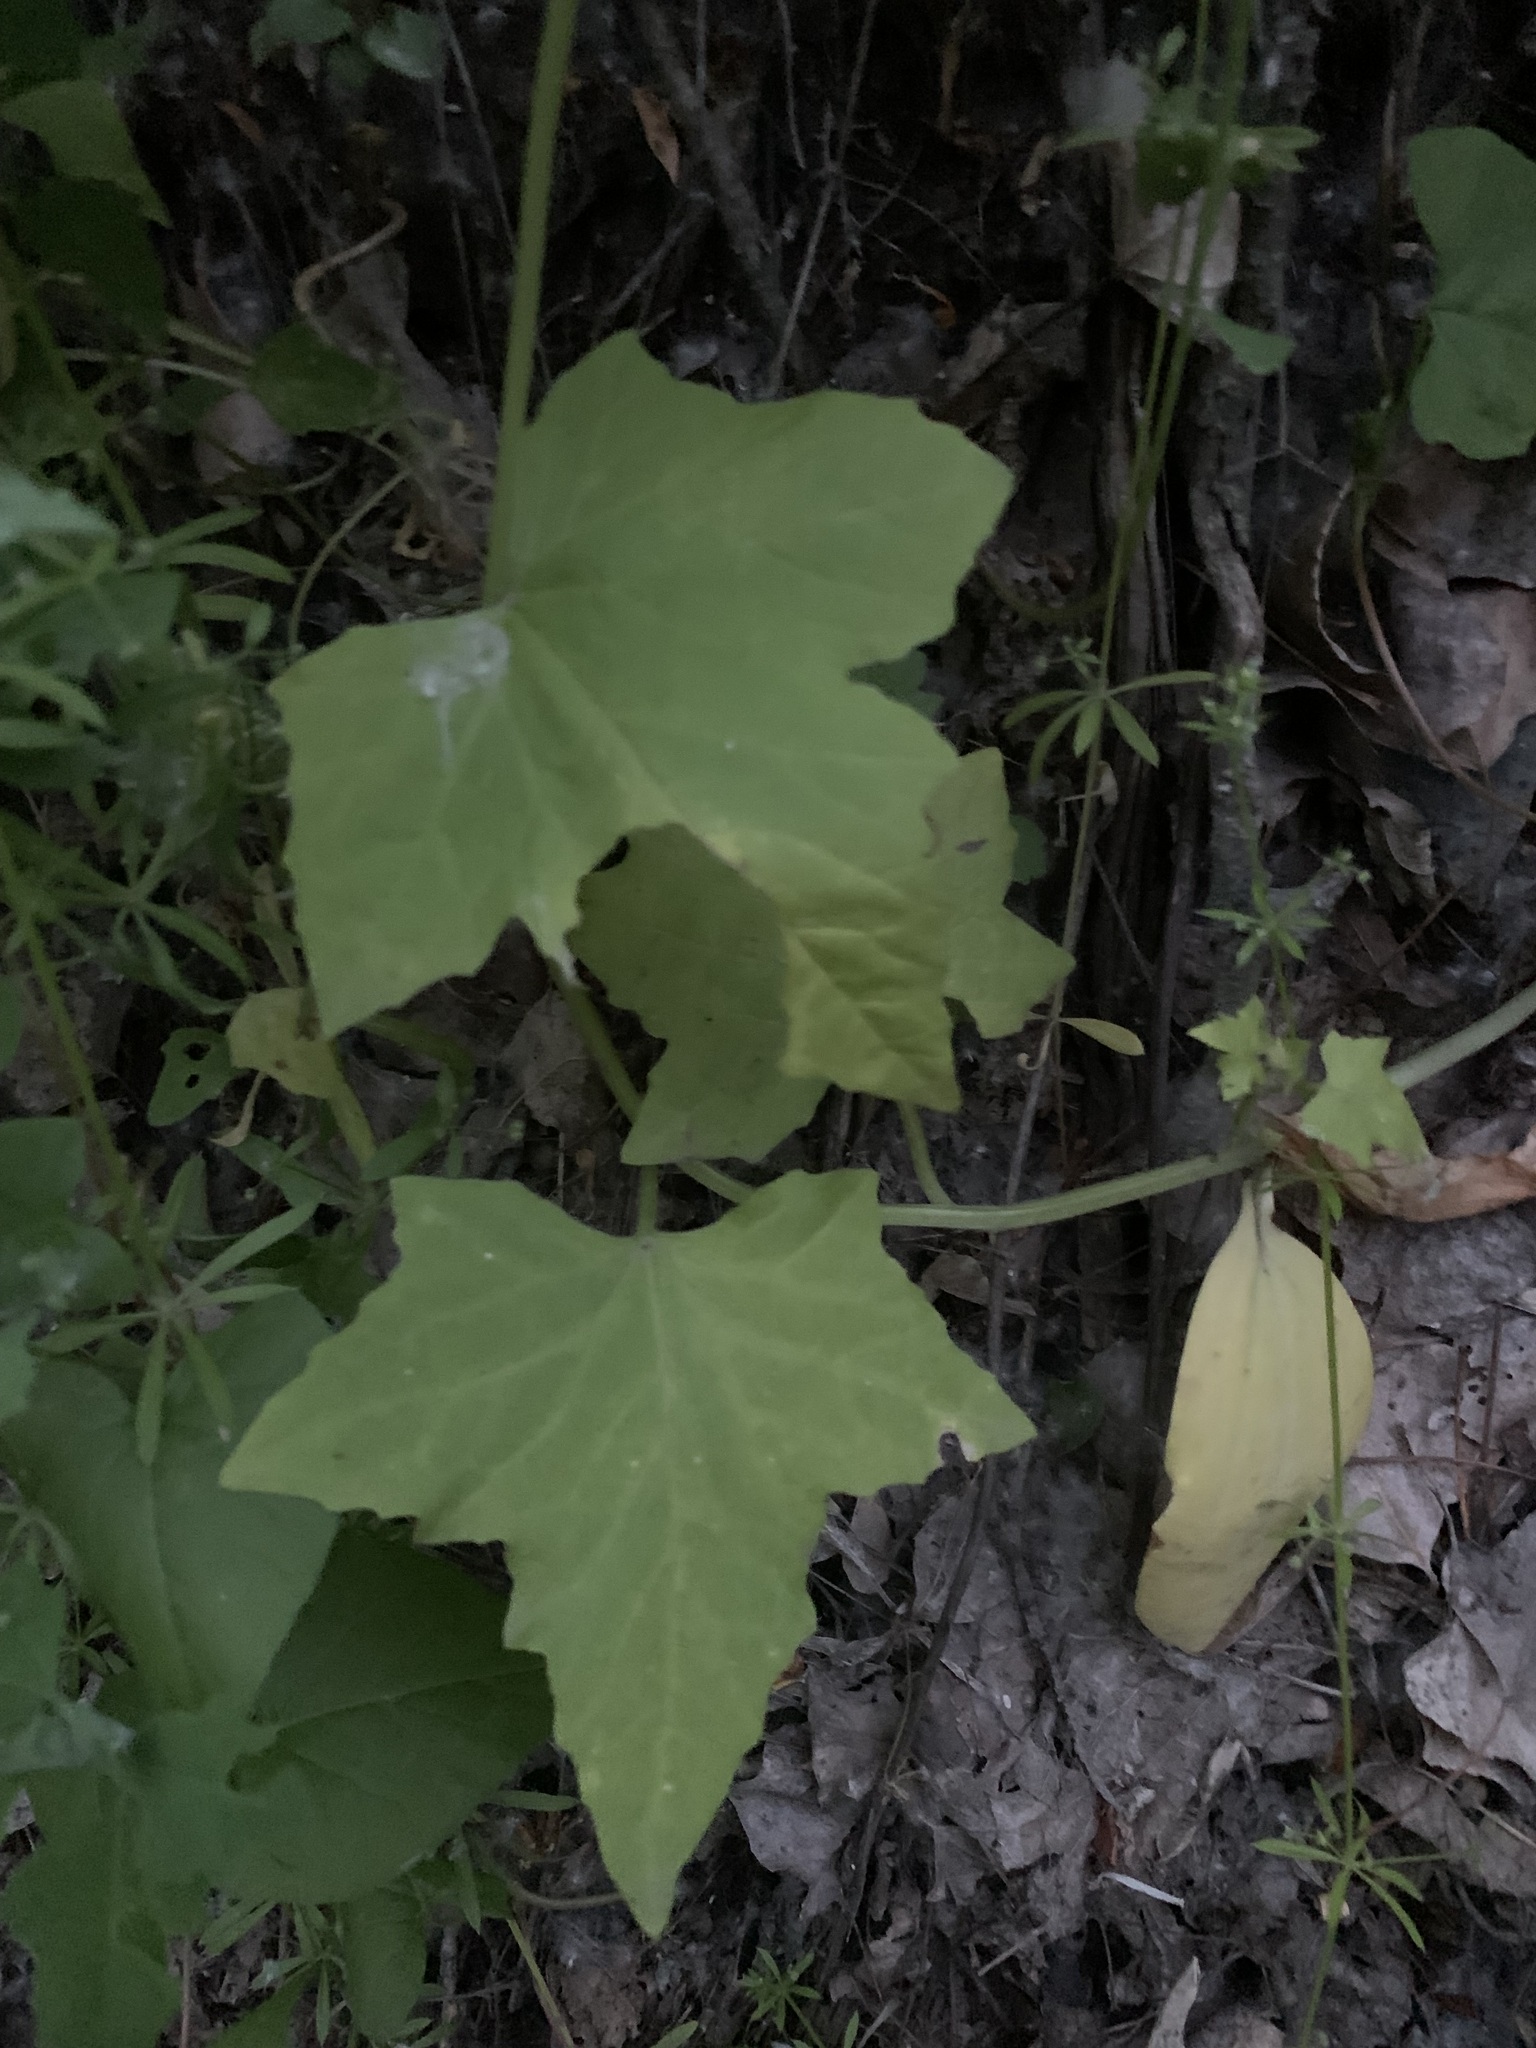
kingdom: Plantae
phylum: Tracheophyta
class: Magnoliopsida
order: Cucurbitales
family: Cucurbitaceae
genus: Echinocystis
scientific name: Echinocystis lobata
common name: Wild cucumber
